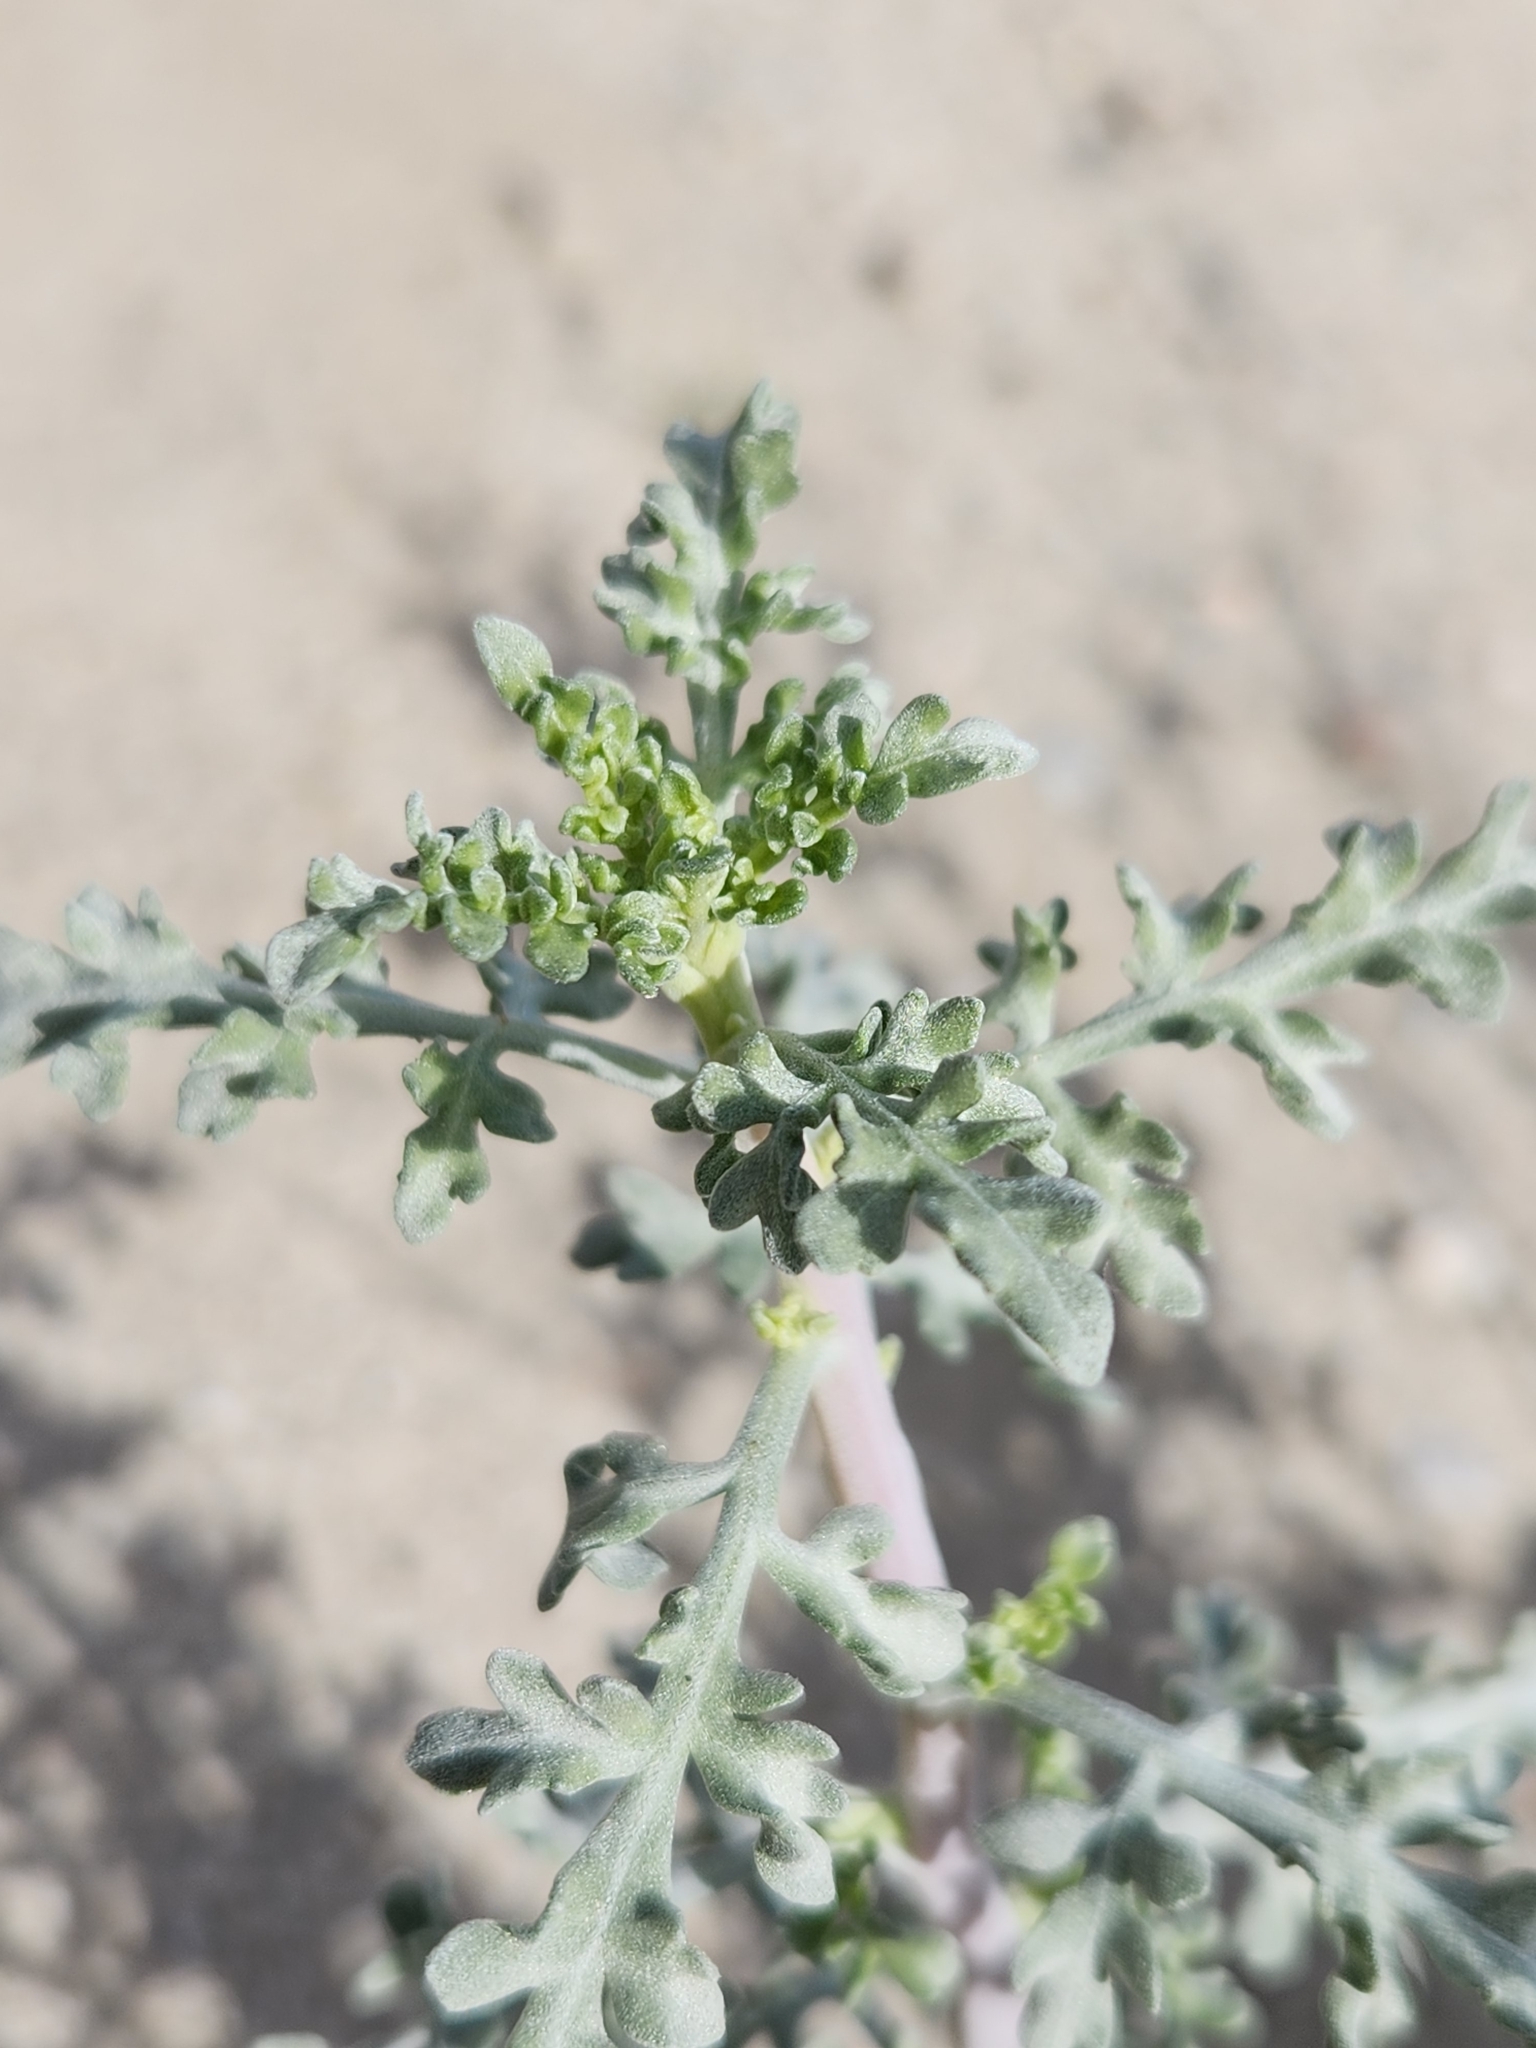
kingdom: Plantae
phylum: Tracheophyta
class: Magnoliopsida
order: Asterales
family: Asteraceae
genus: Ambrosia
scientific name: Ambrosia dumosa
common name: Bur-sage
